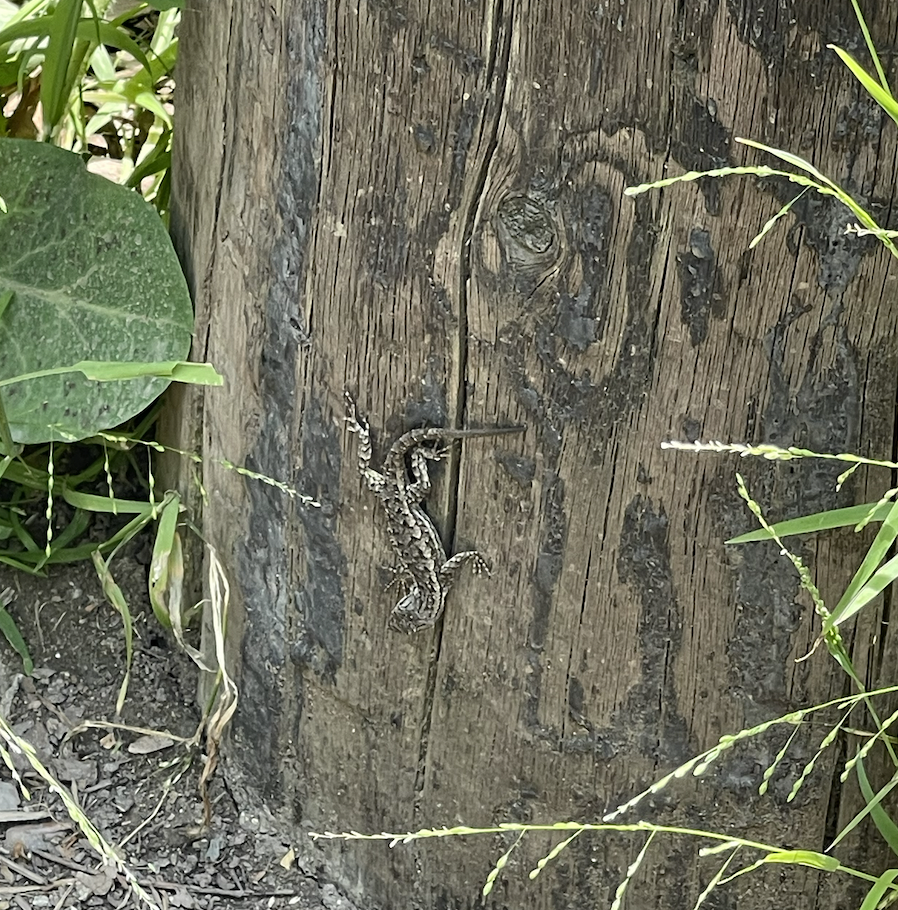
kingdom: Animalia
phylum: Chordata
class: Squamata
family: Phrynosomatidae
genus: Sceloporus
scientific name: Sceloporus occidentalis
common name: Western fence lizard
